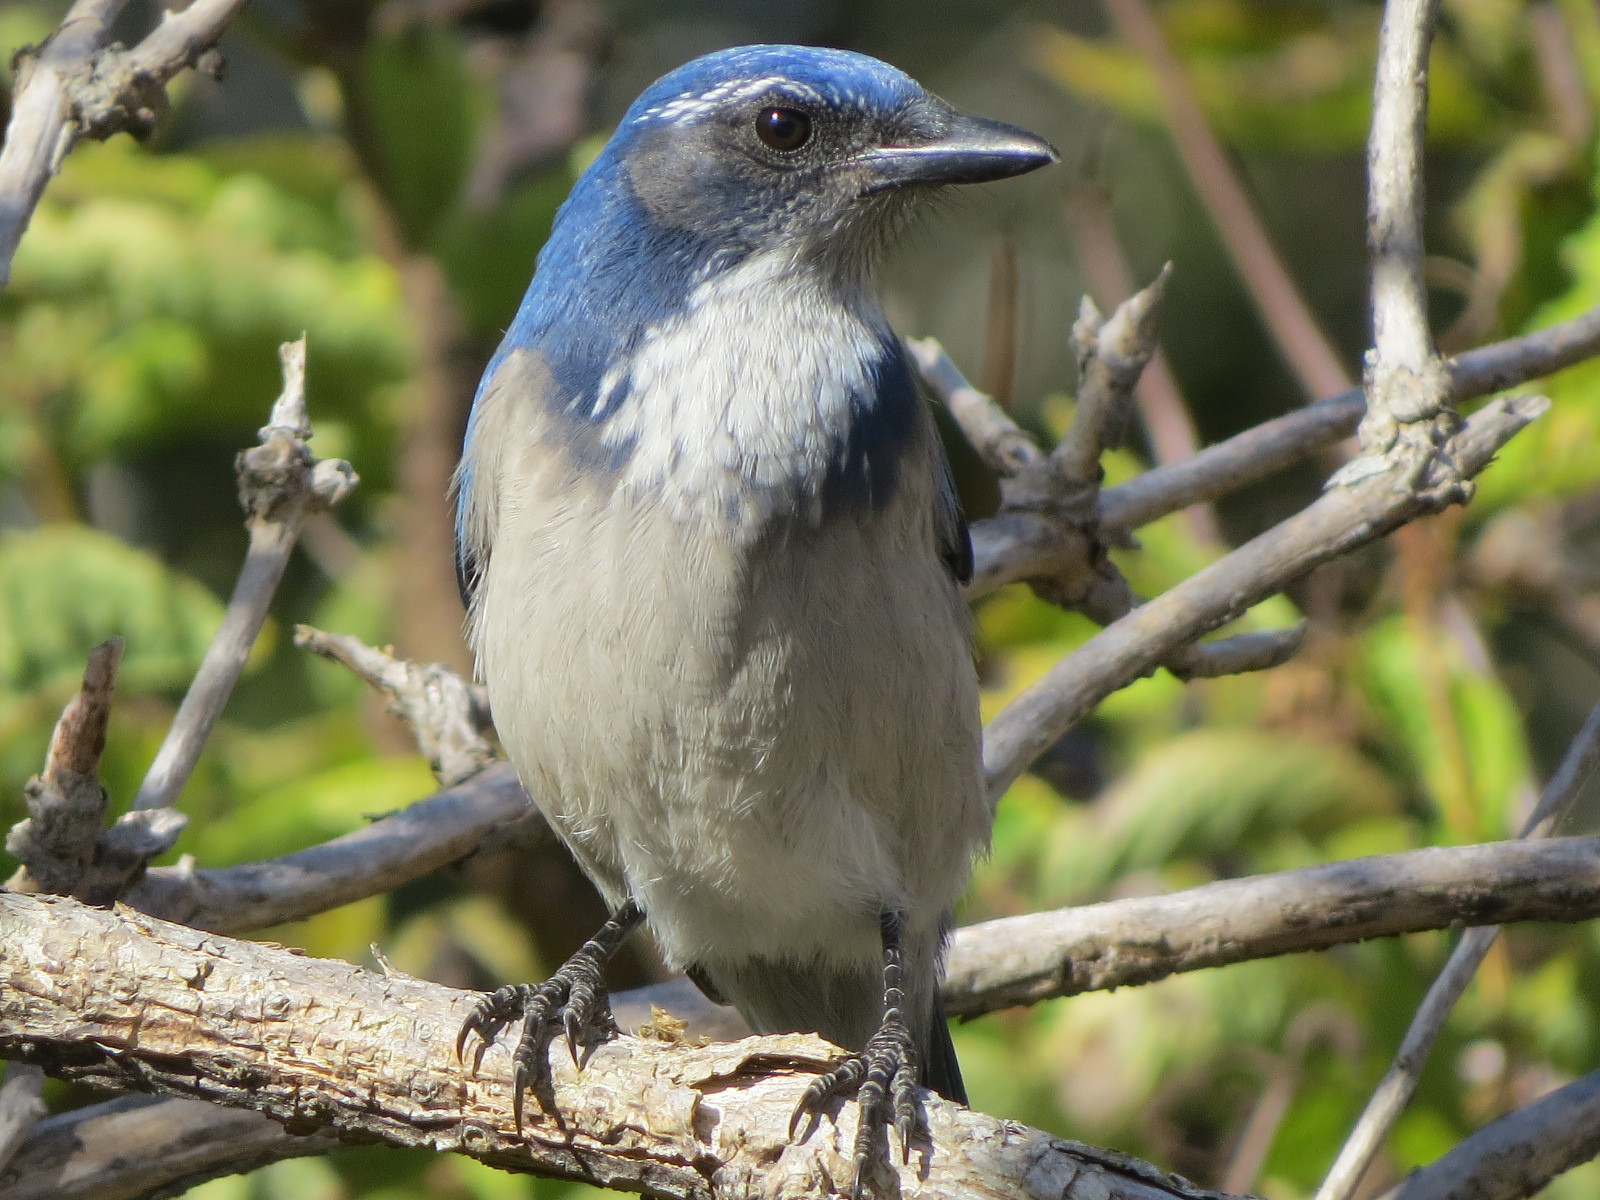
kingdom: Animalia
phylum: Chordata
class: Aves
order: Passeriformes
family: Corvidae
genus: Aphelocoma
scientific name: Aphelocoma californica
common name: California scrub-jay
